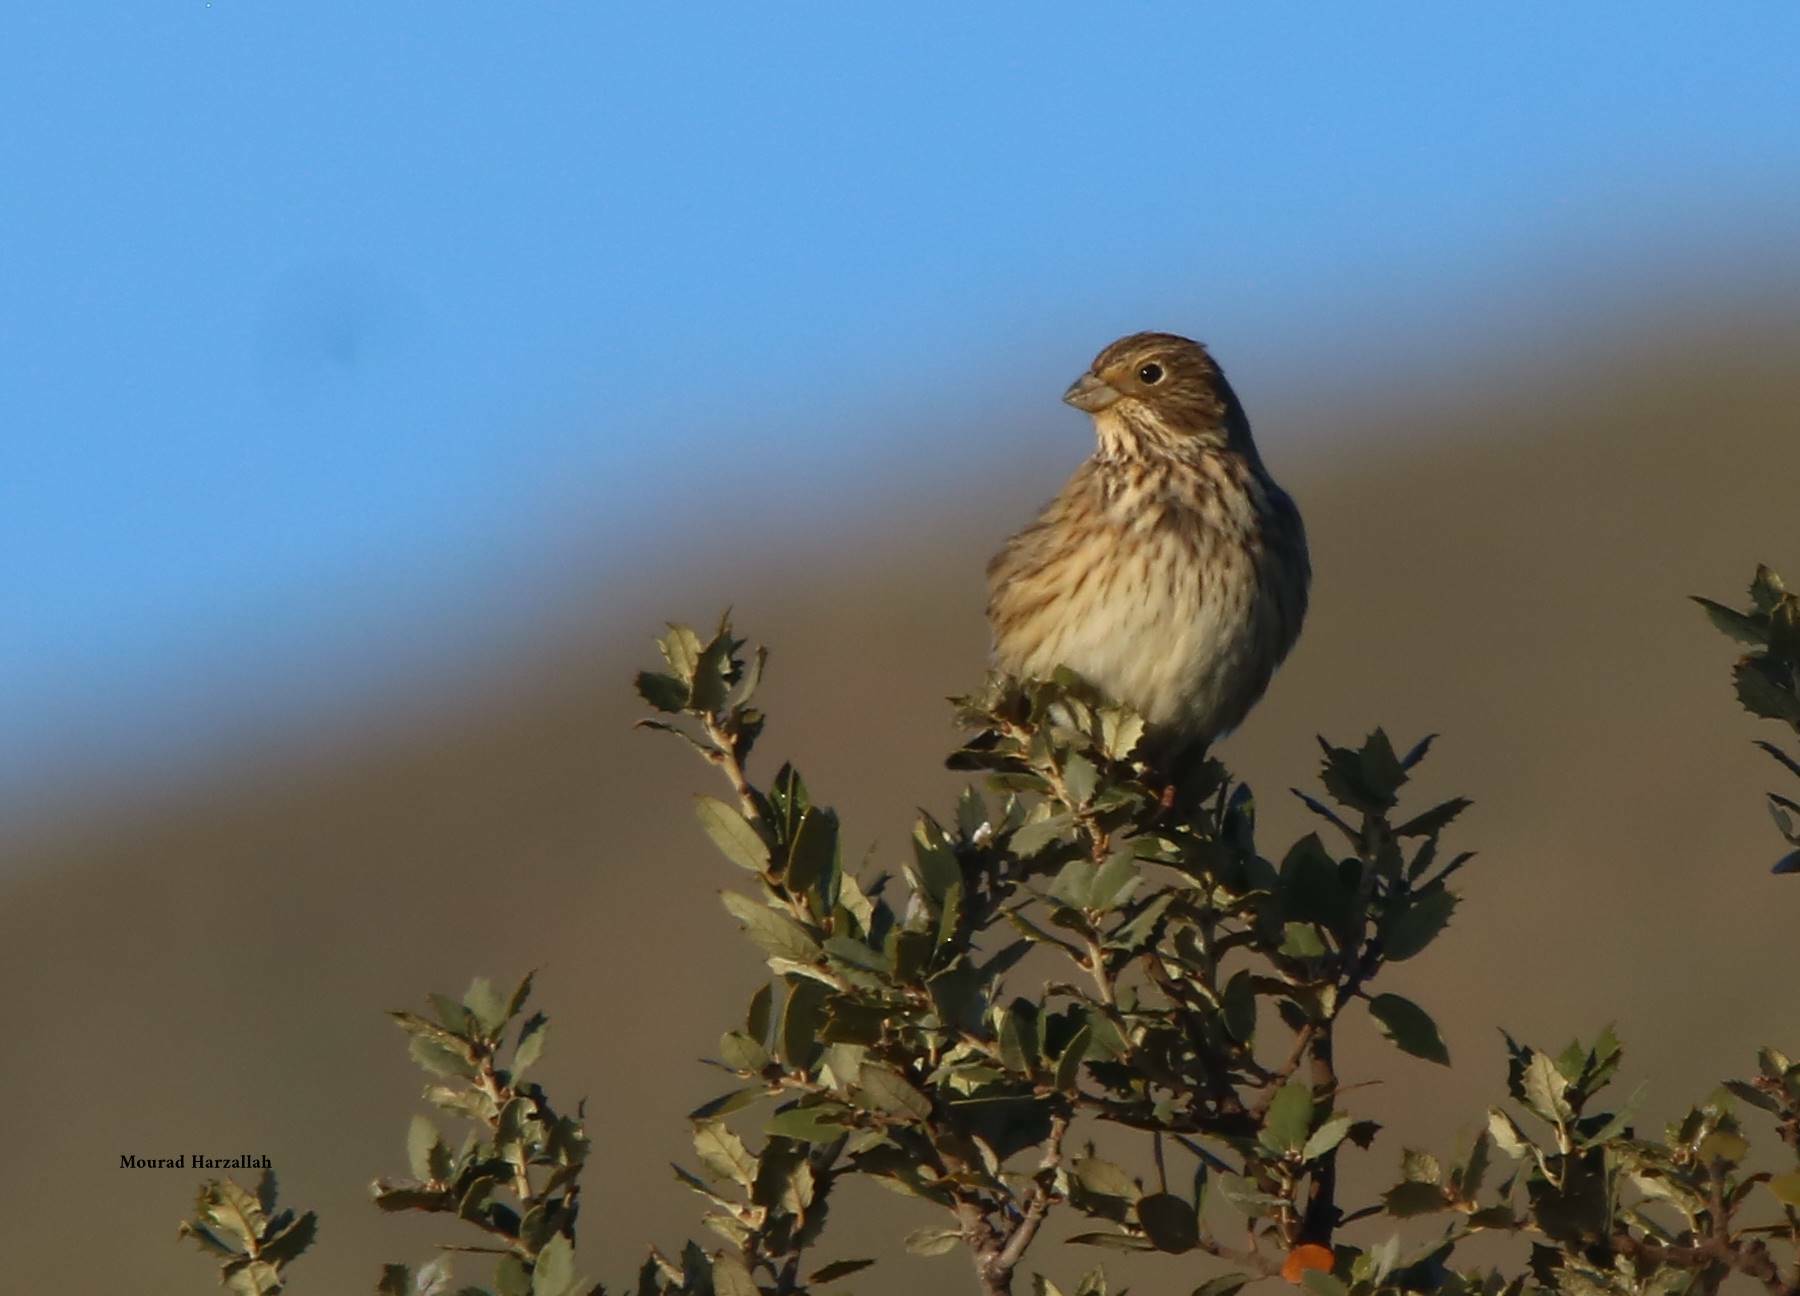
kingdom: Animalia
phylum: Chordata
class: Aves
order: Passeriformes
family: Emberizidae
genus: Emberiza
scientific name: Emberiza calandra
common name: Corn bunting
